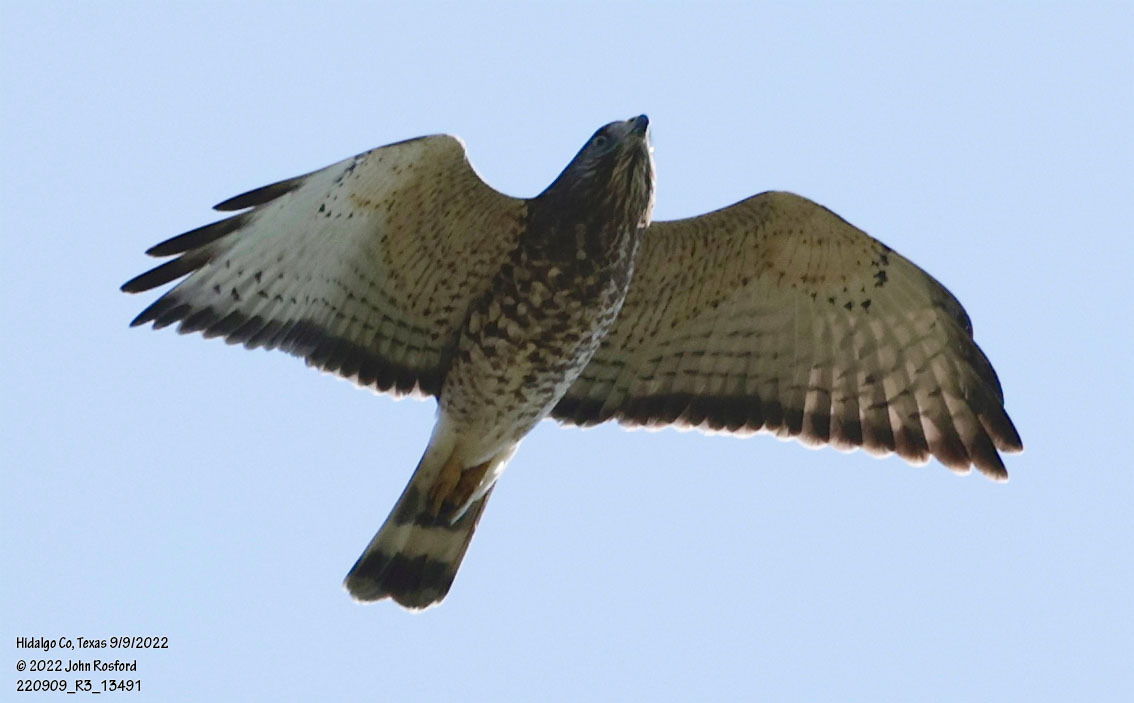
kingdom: Animalia
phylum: Chordata
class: Aves
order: Accipitriformes
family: Accipitridae
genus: Buteo
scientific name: Buteo platypterus
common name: Broad-winged hawk
